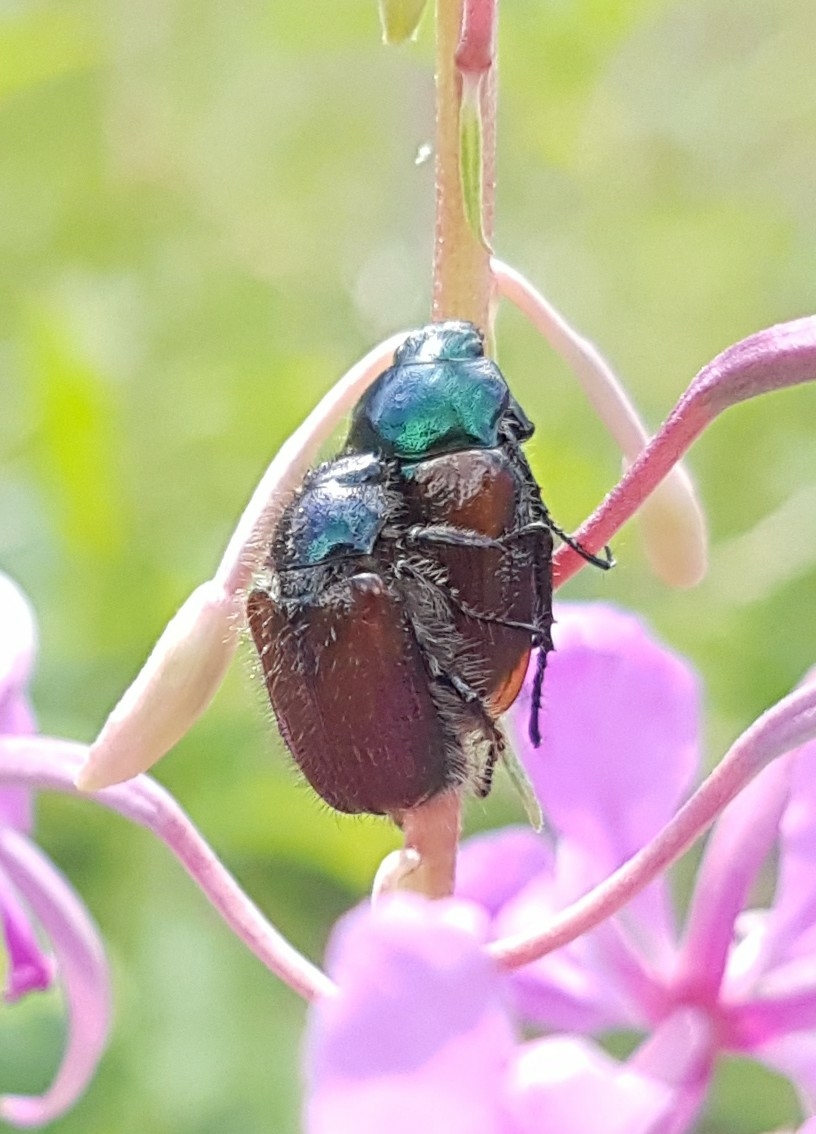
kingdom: Animalia
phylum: Arthropoda
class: Insecta
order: Coleoptera
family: Scarabaeidae
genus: Phyllopertha
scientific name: Phyllopertha horticola
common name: Garden chafer
